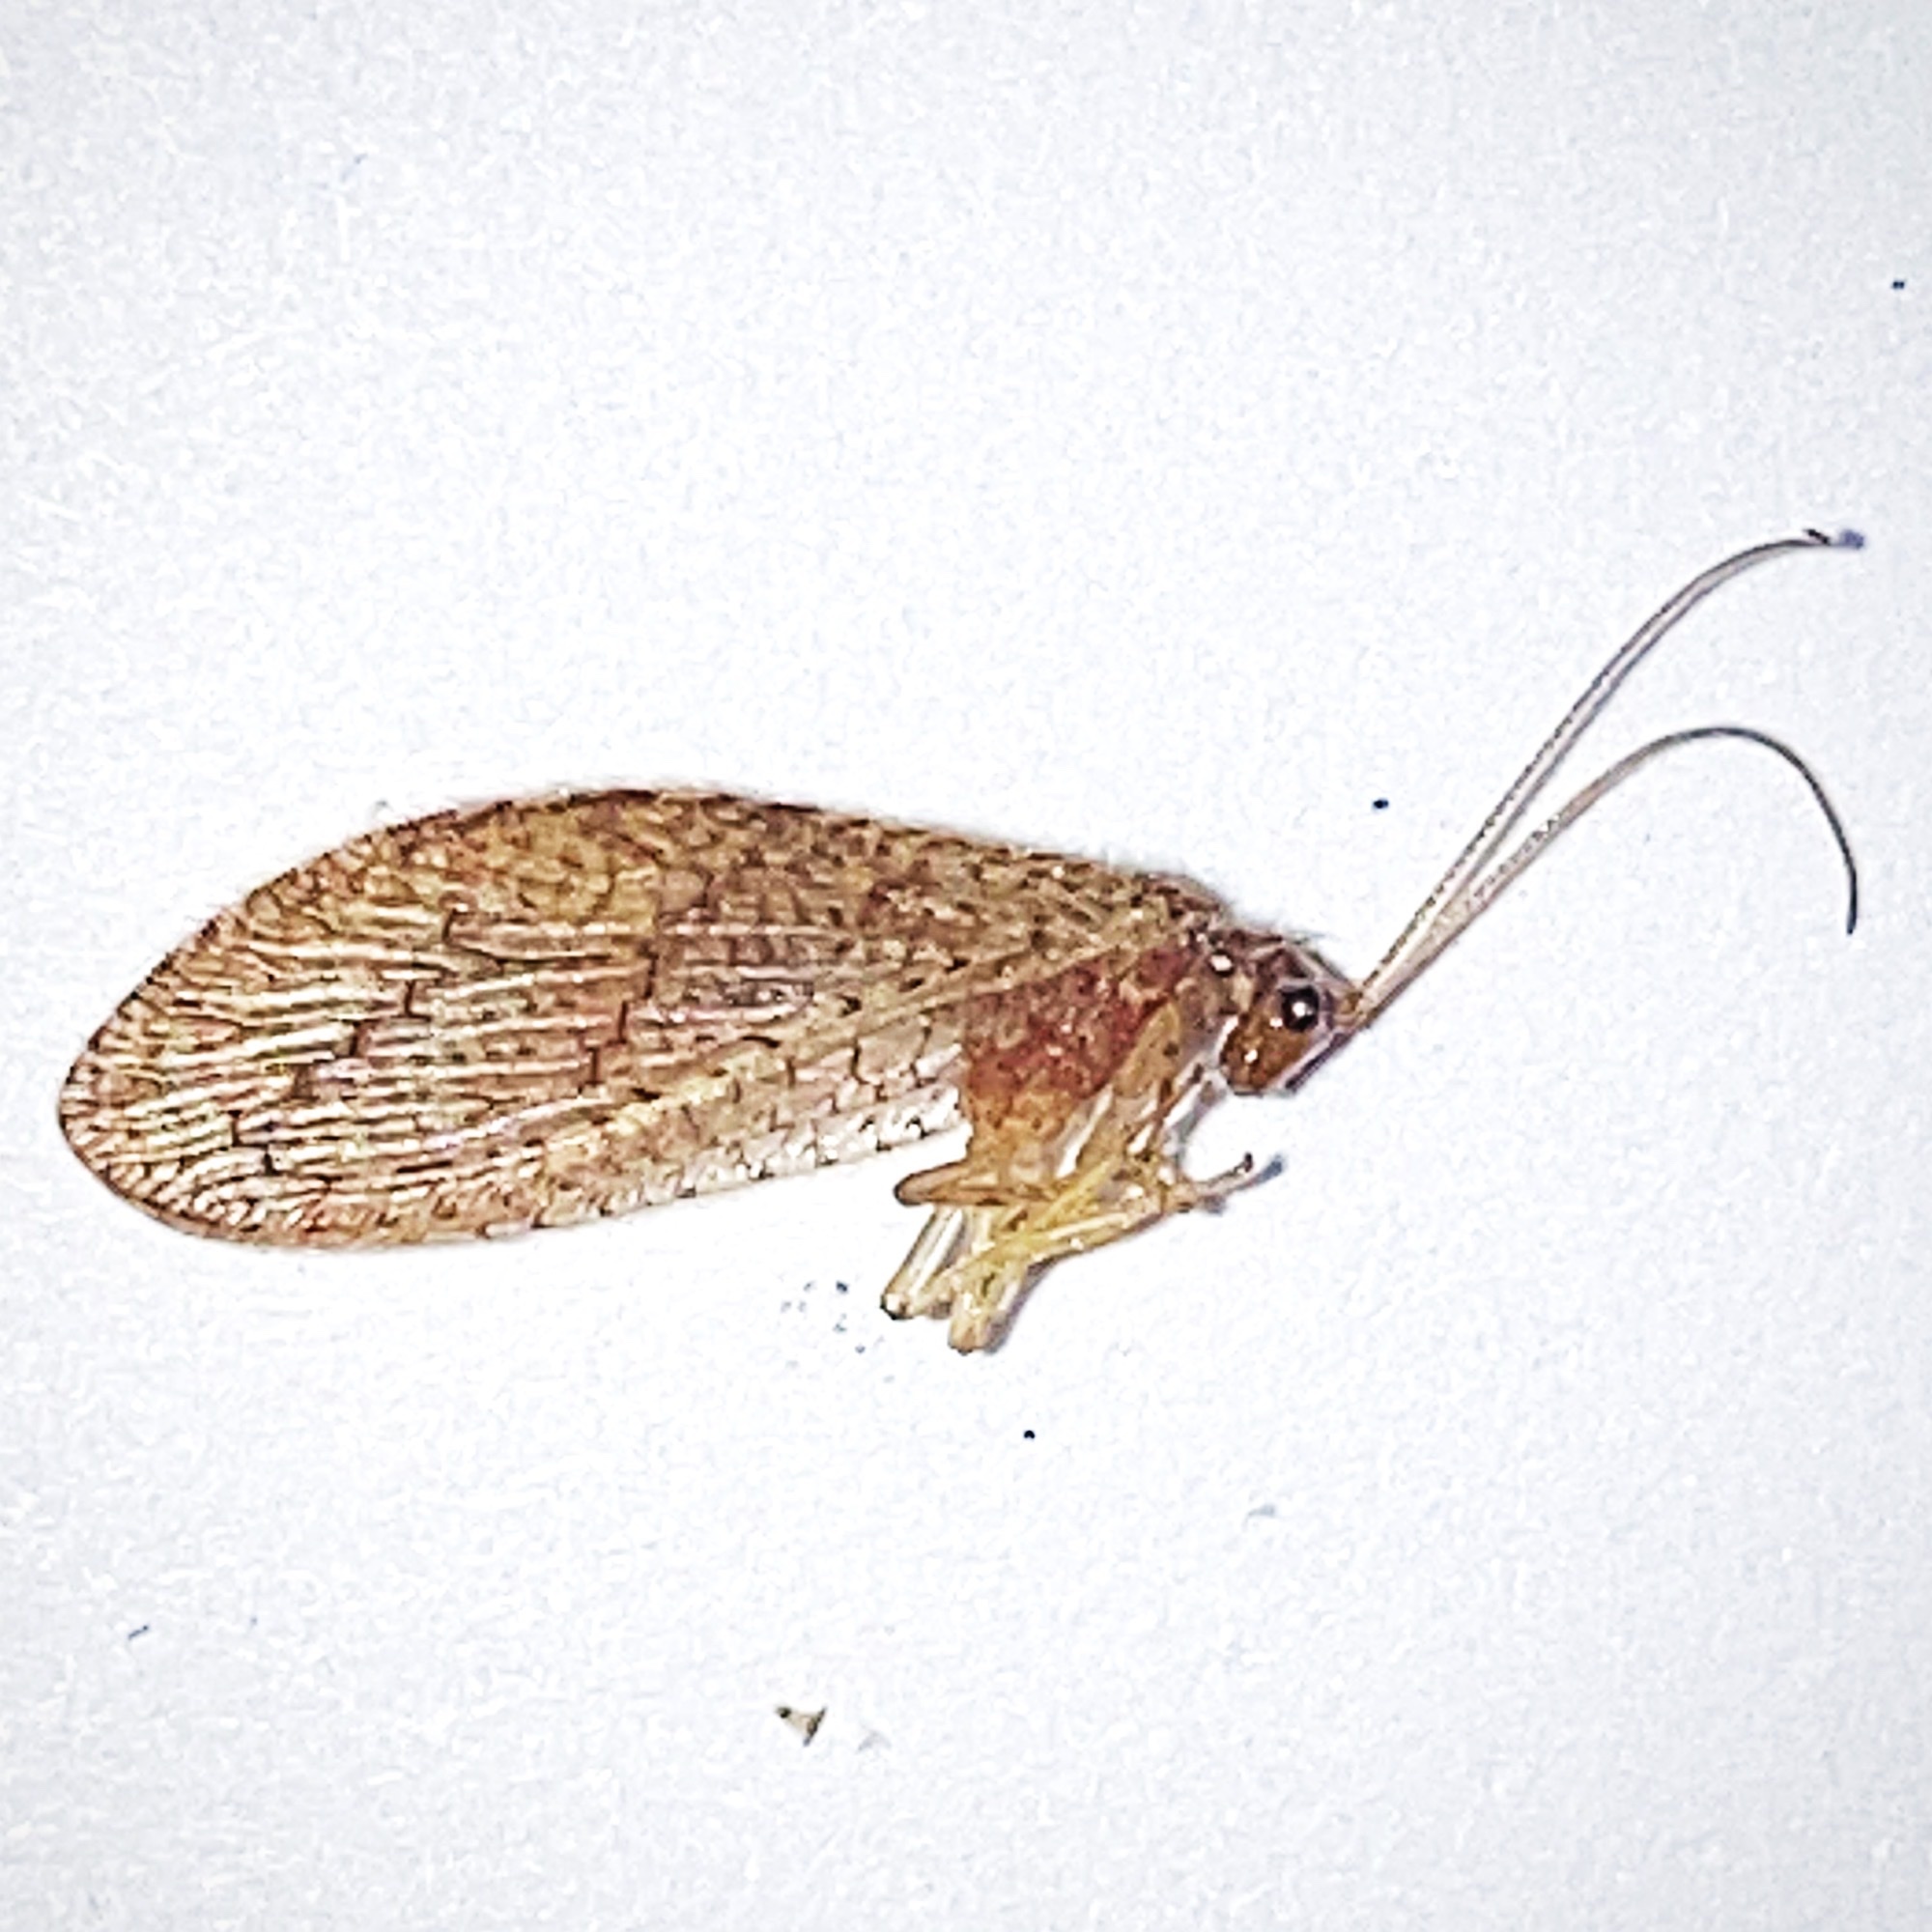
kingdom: Animalia
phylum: Arthropoda
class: Insecta
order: Neuroptera
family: Hemerobiidae
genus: Micromus
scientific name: Micromus posticus
